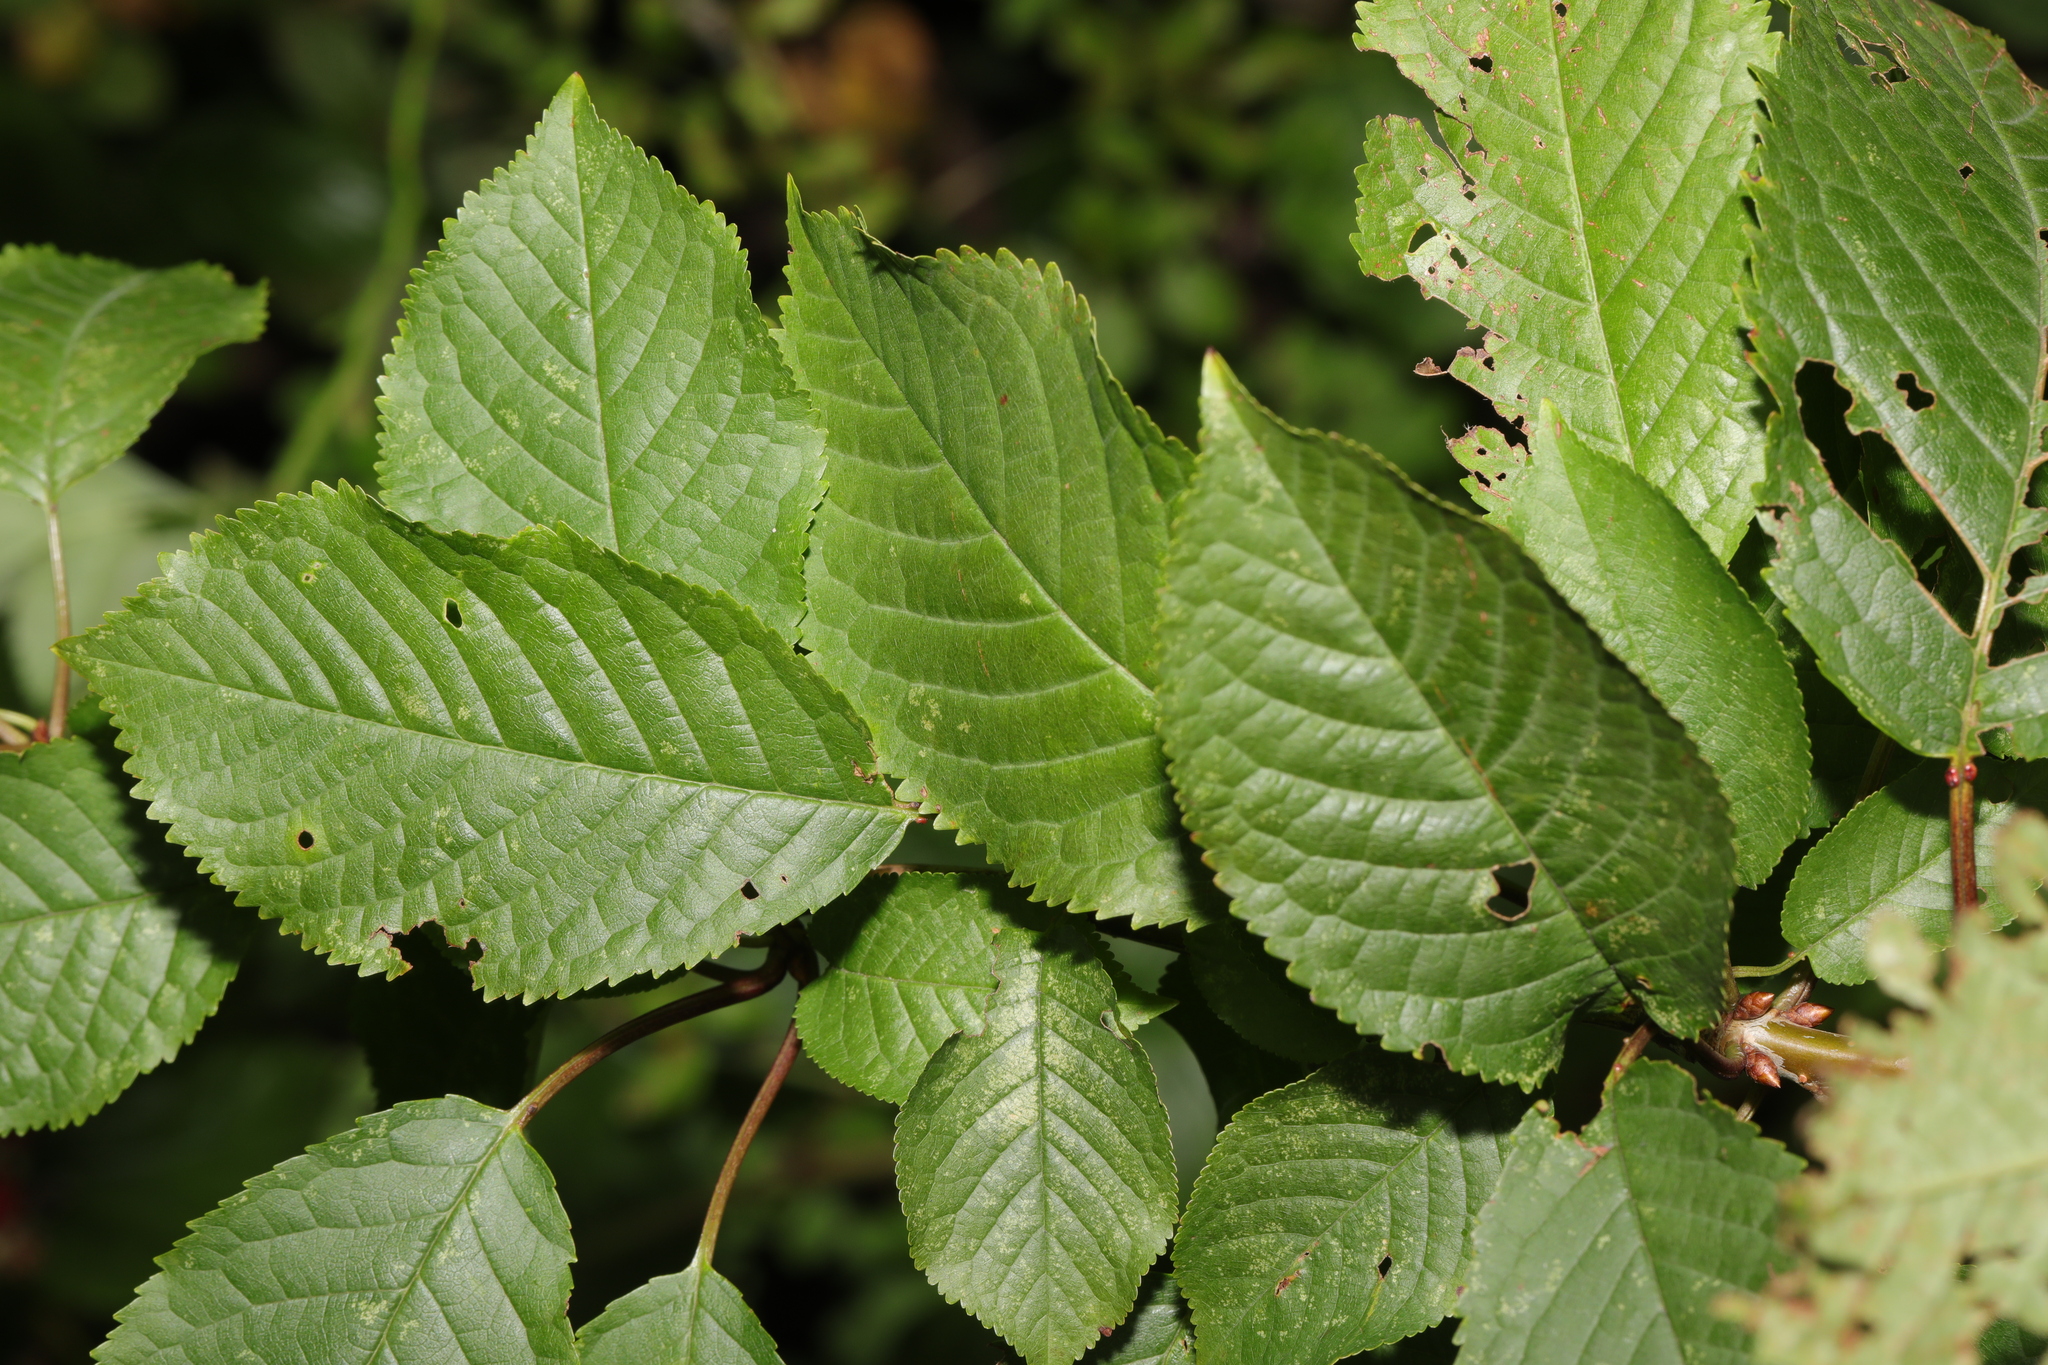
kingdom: Plantae
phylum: Tracheophyta
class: Magnoliopsida
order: Rosales
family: Rosaceae
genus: Prunus
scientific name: Prunus avium
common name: Sweet cherry
